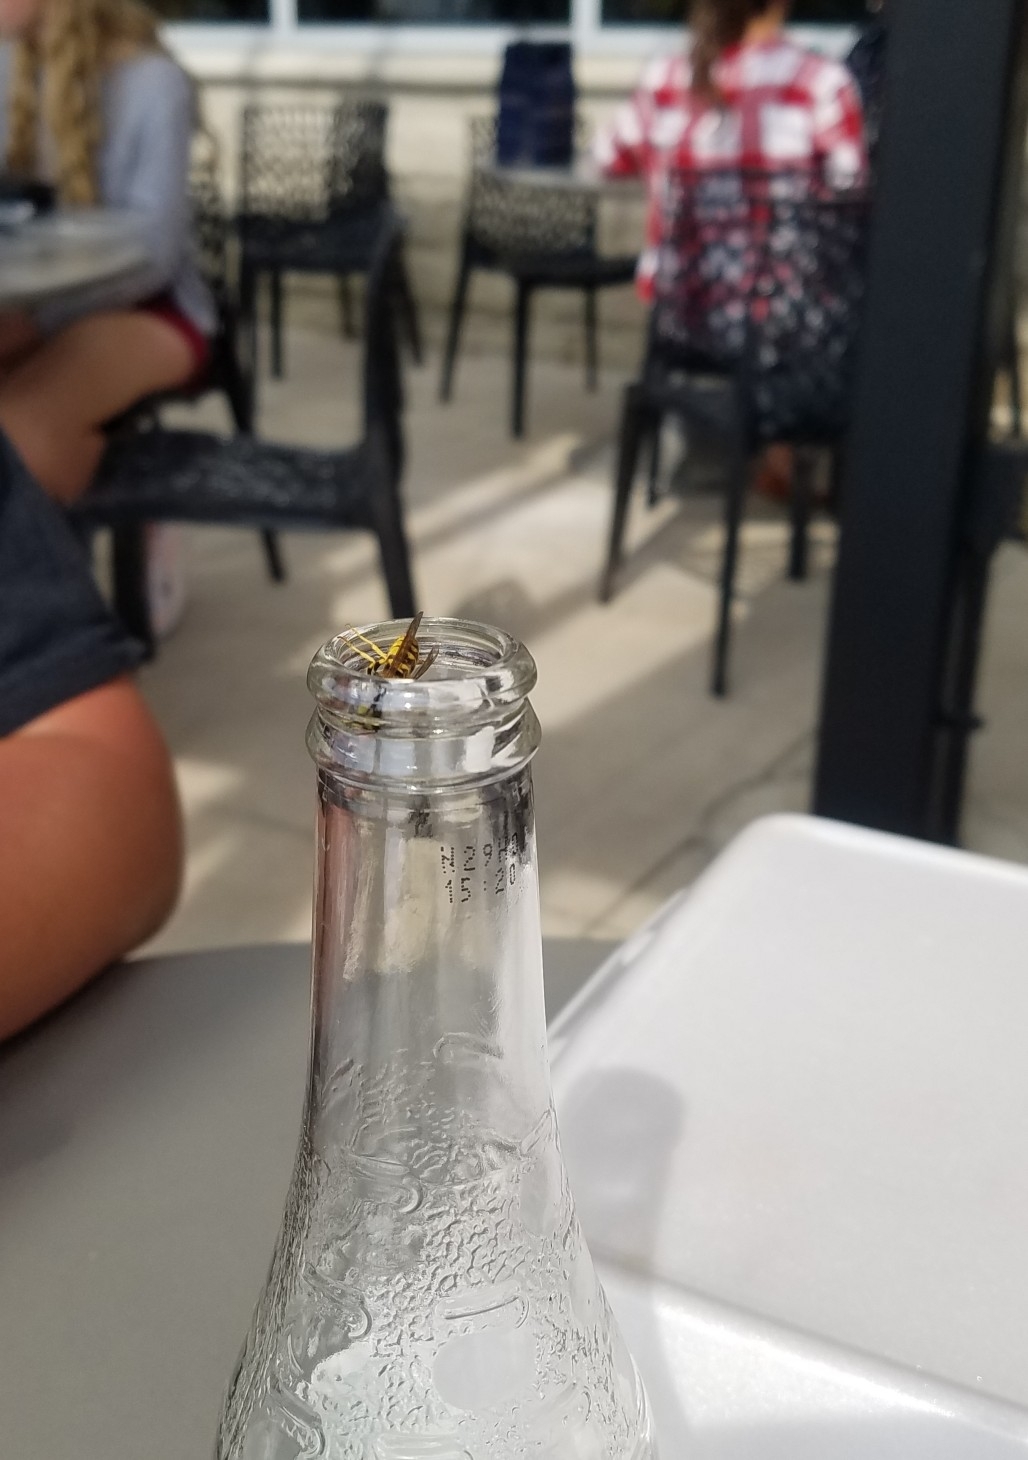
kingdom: Animalia
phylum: Arthropoda
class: Insecta
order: Hymenoptera
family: Vespidae
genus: Vespula
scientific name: Vespula
